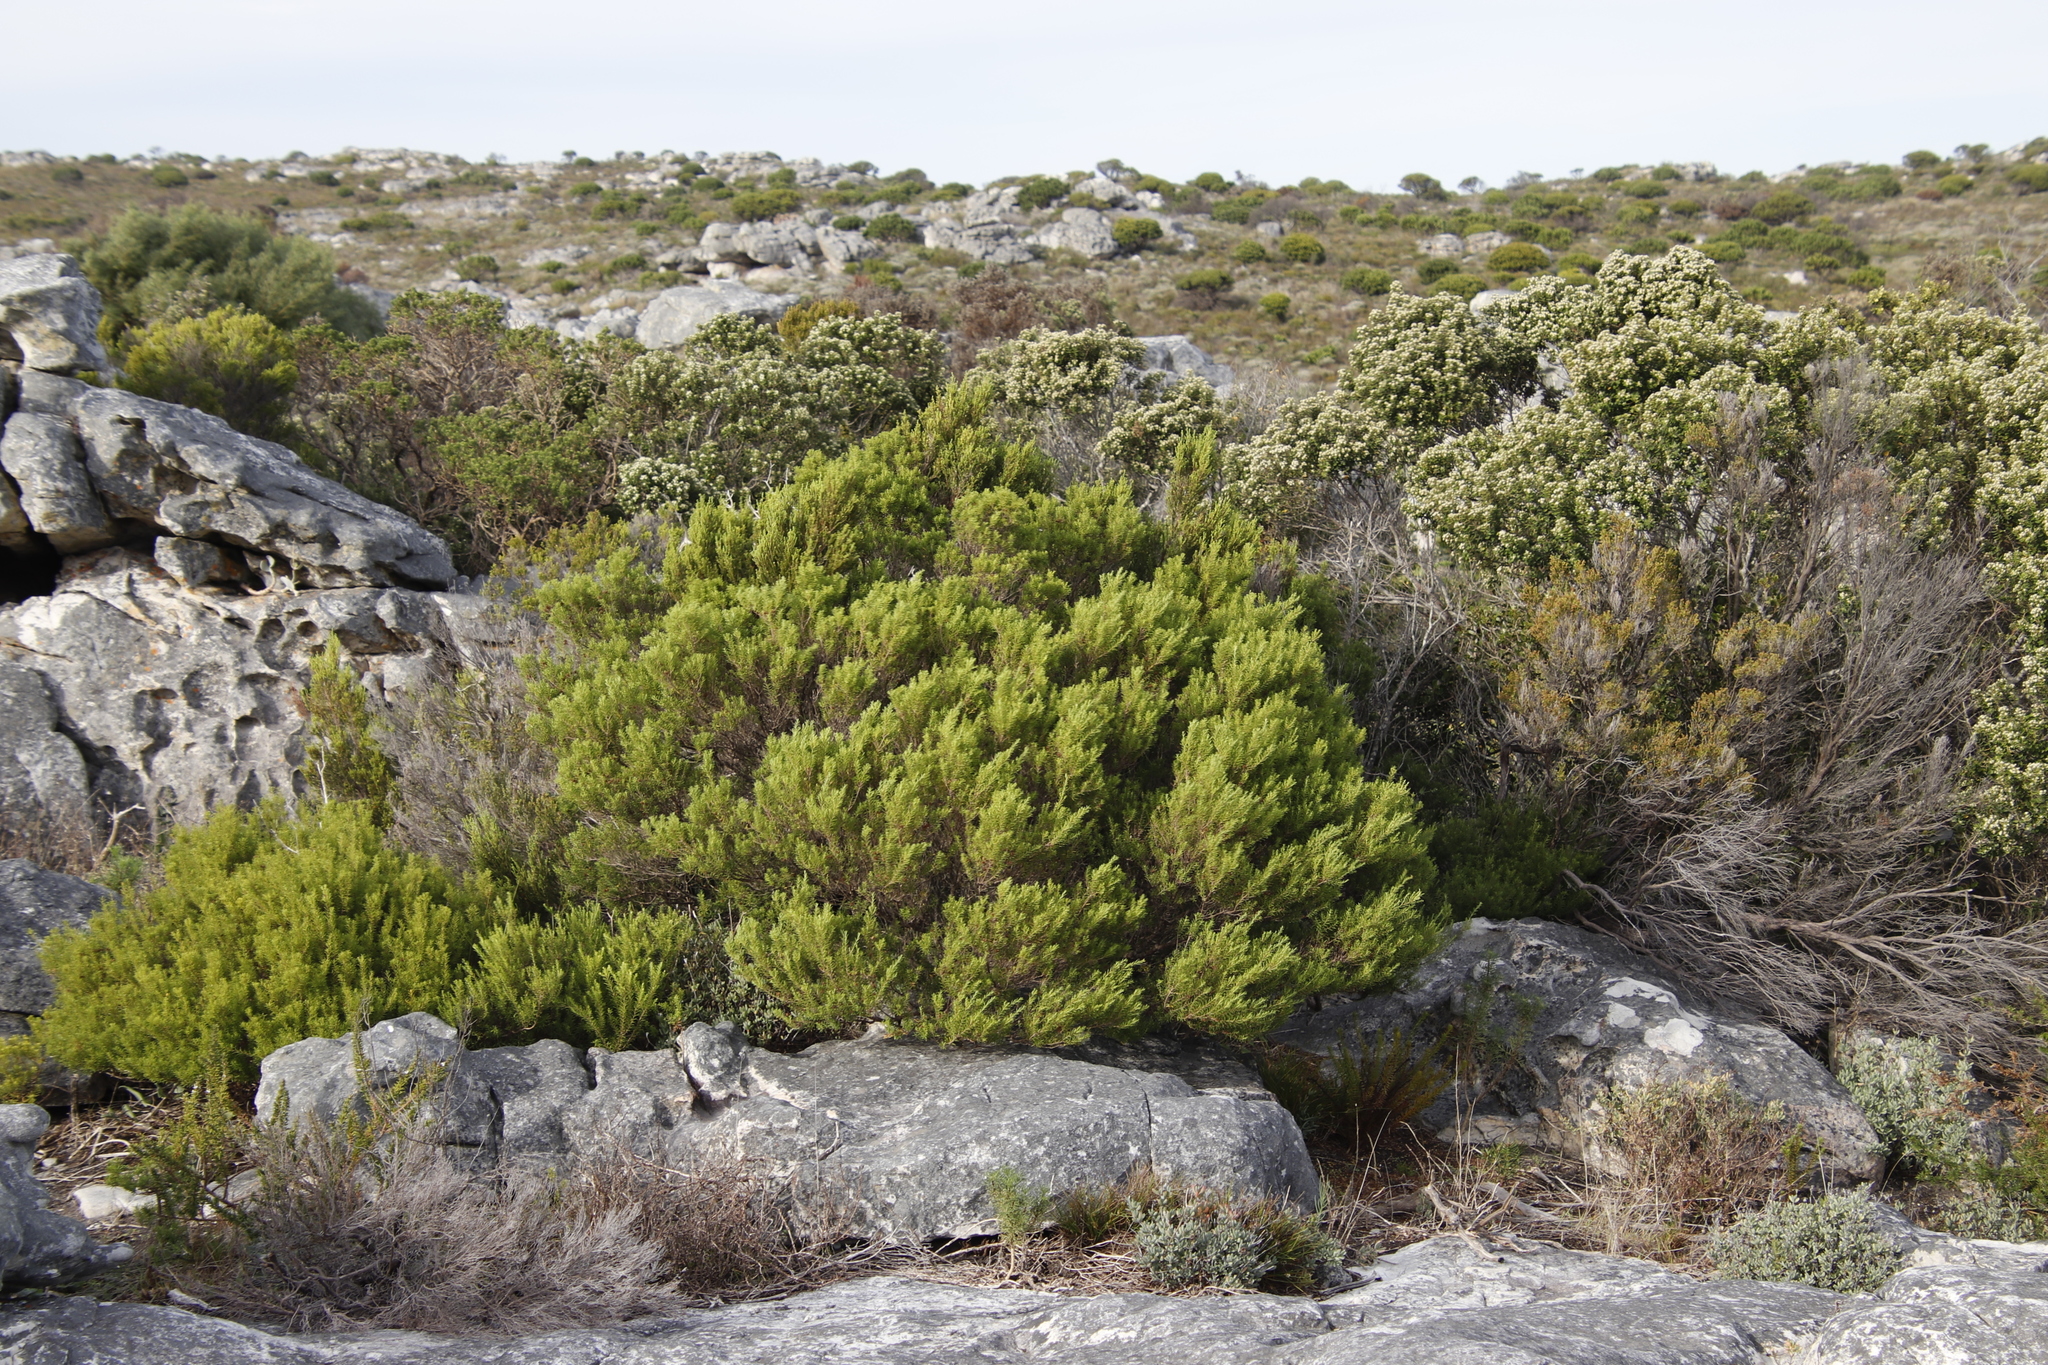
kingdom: Plantae
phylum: Tracheophyta
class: Magnoliopsida
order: Sapindales
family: Rutaceae
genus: Coleonema
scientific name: Coleonema album
